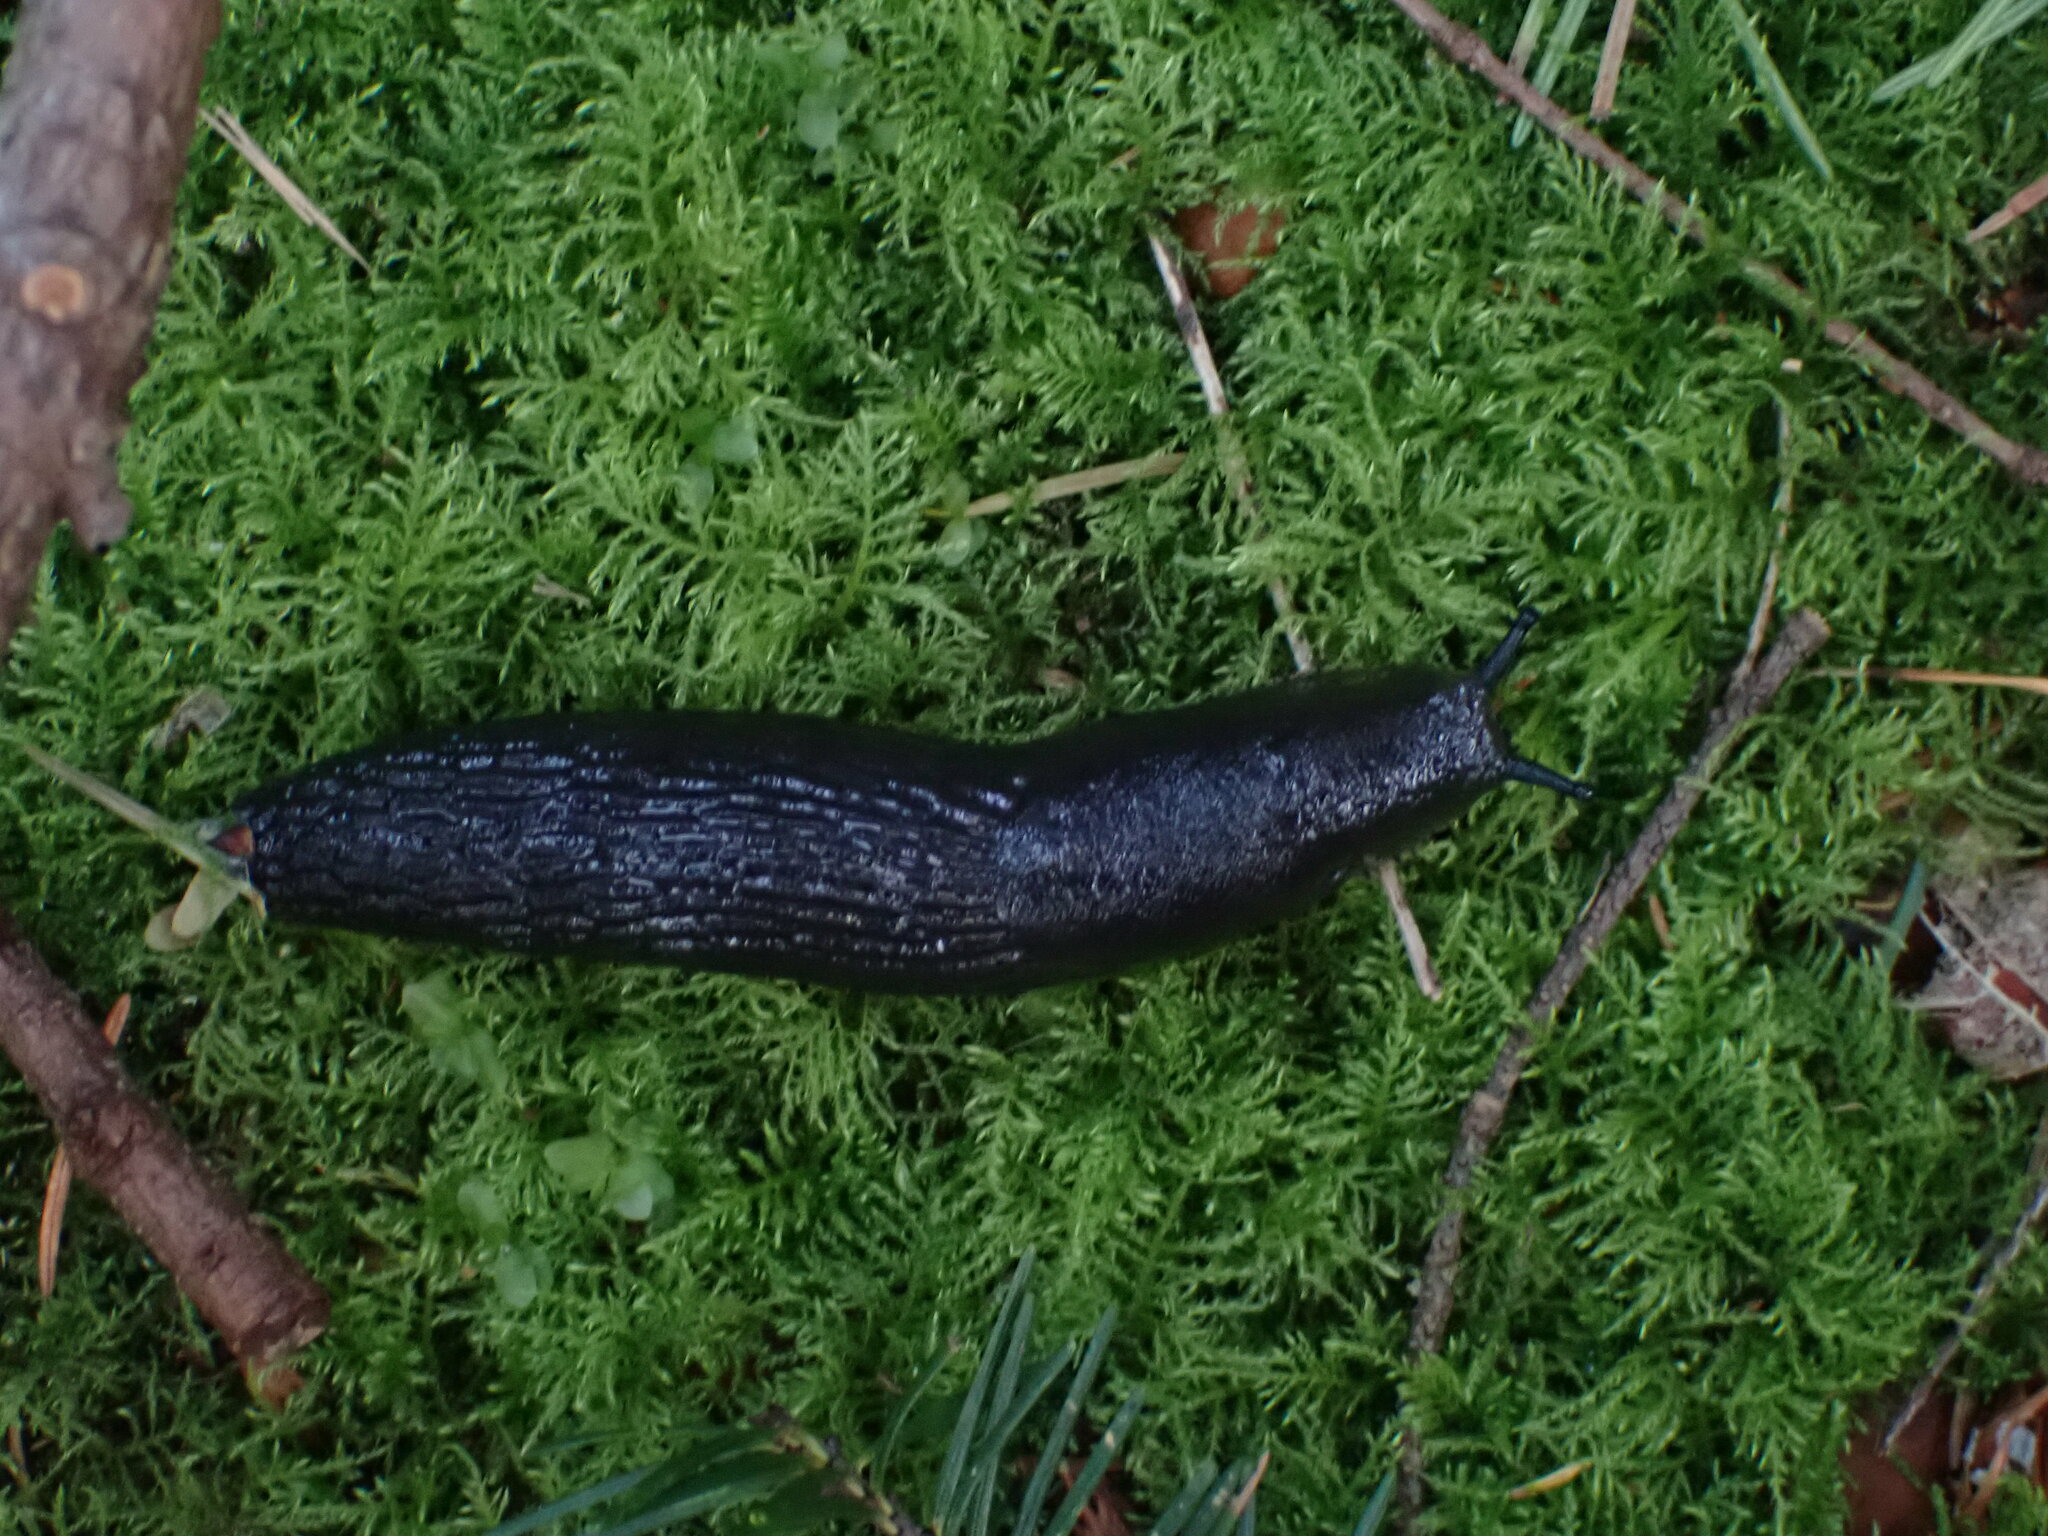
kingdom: Animalia
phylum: Mollusca
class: Gastropoda
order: Stylommatophora
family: Arionidae
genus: Arion
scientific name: Arion
